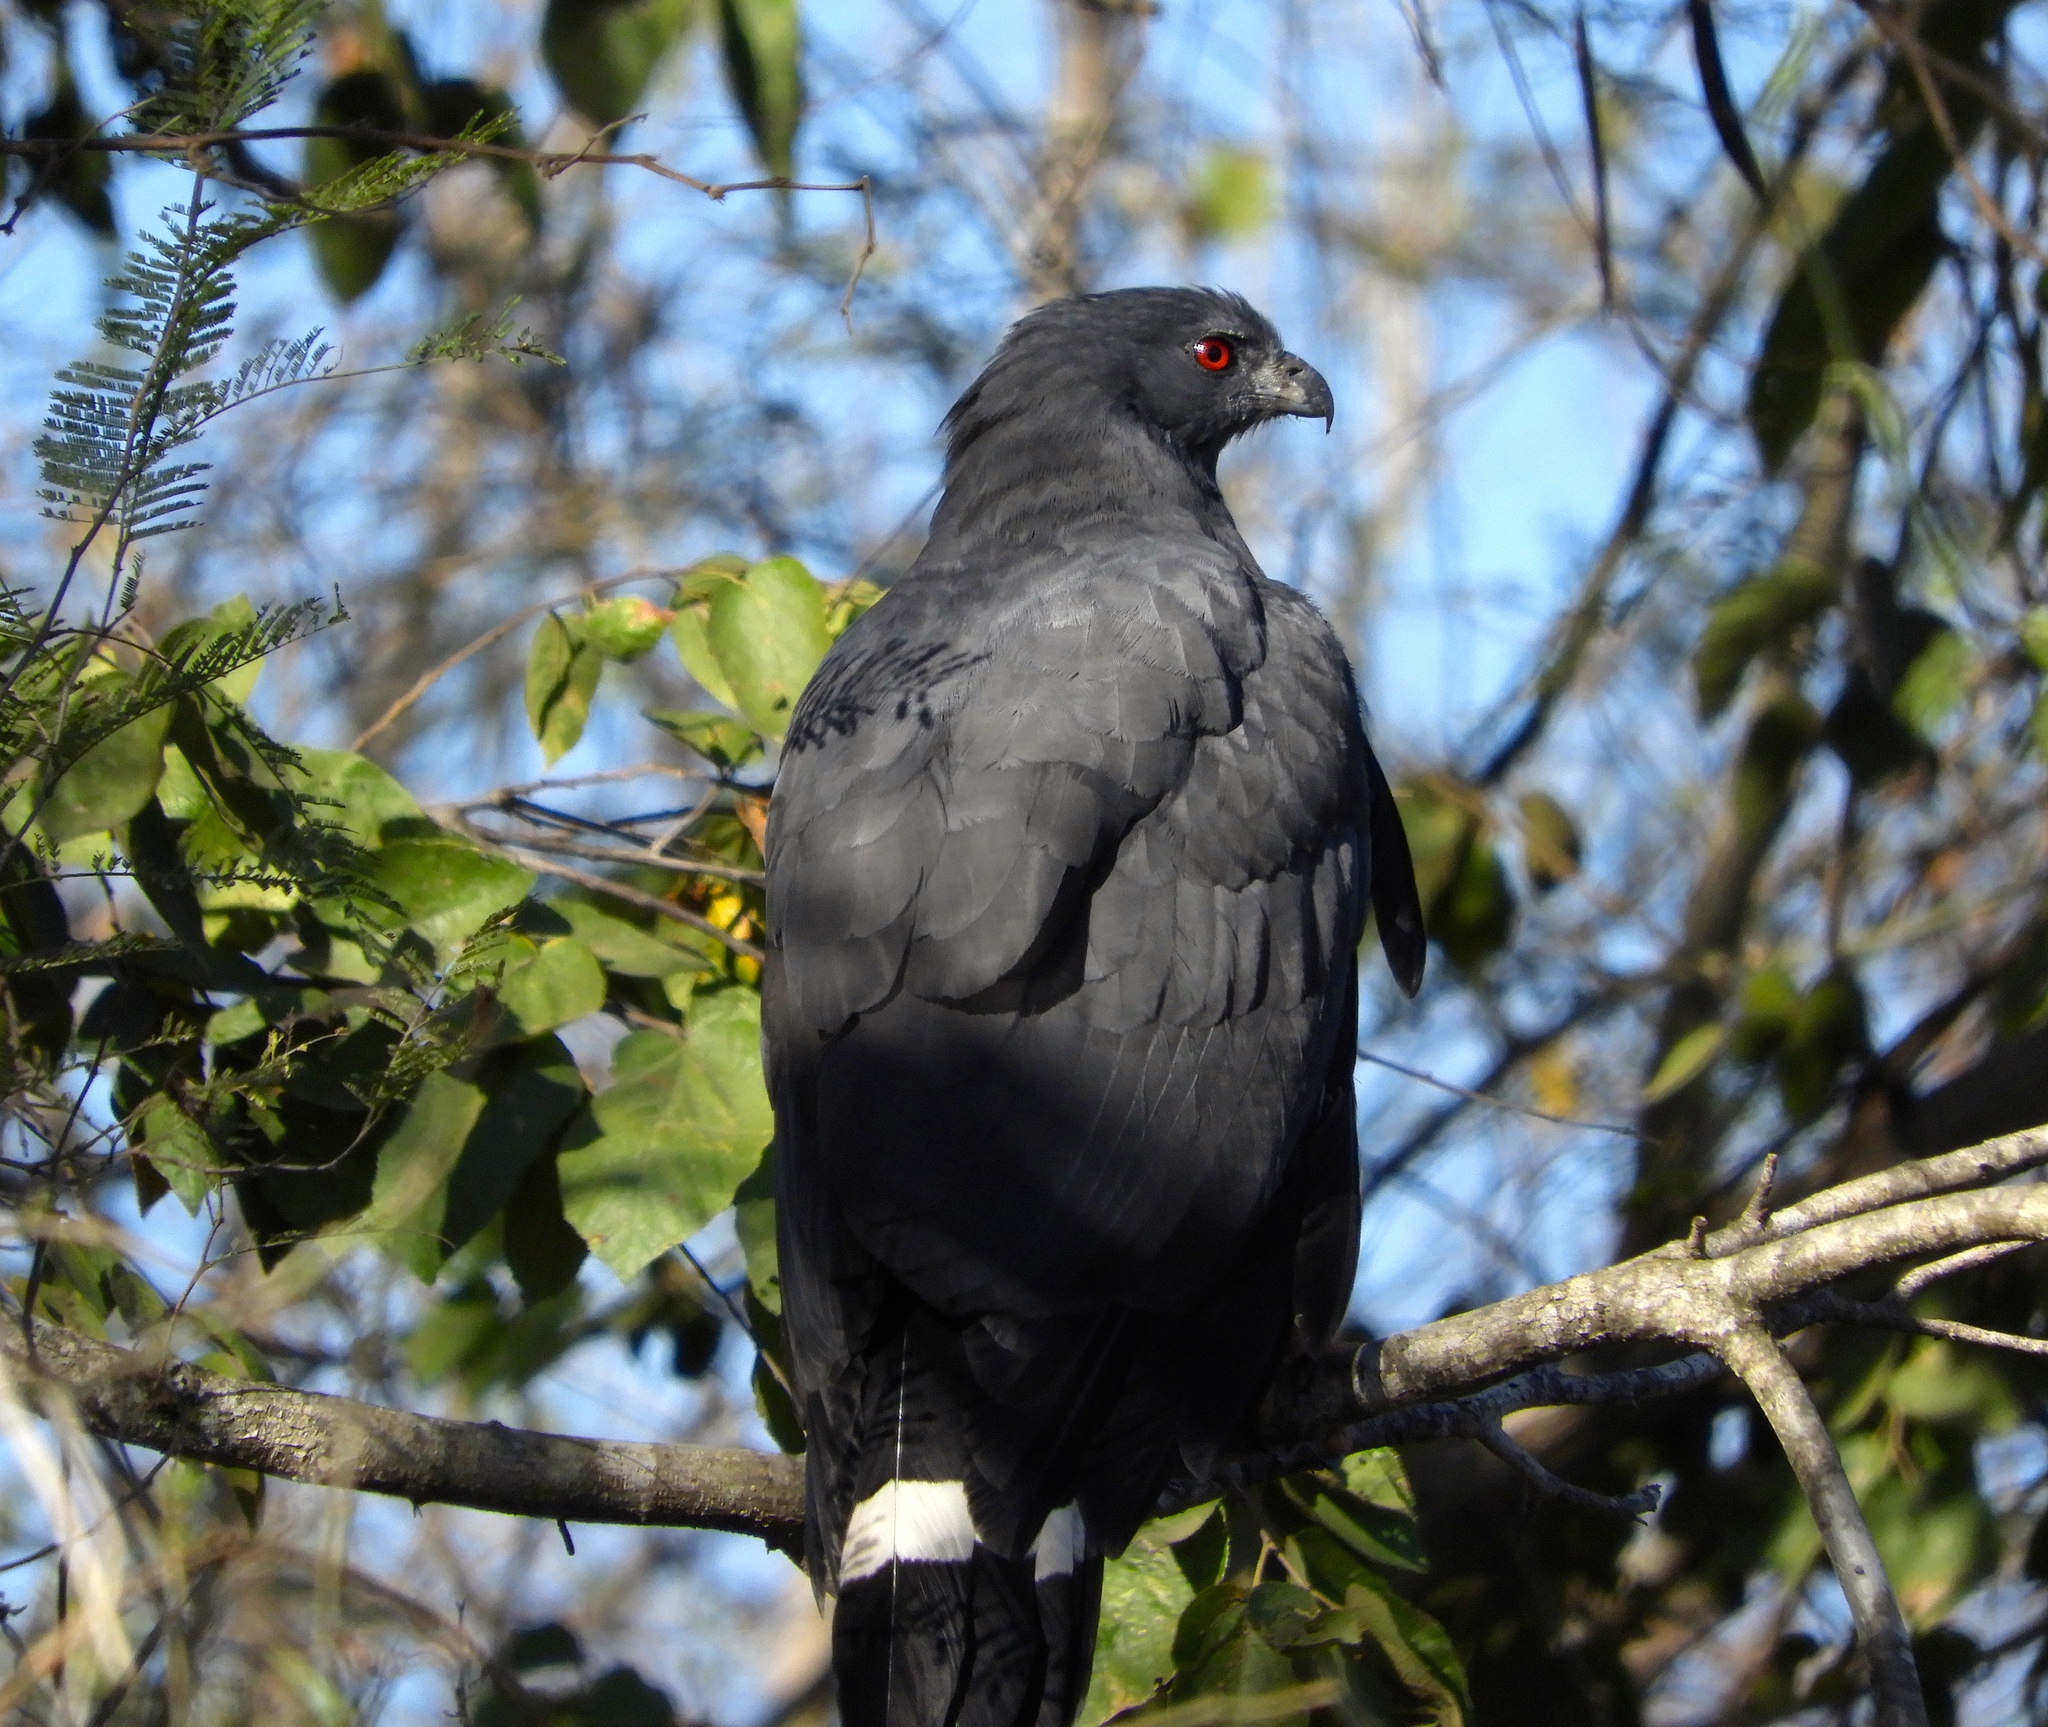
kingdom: Animalia
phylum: Chordata
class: Aves
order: Accipitriformes
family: Accipitridae
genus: Geranospiza
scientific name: Geranospiza caerulescens
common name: Crane hawk
